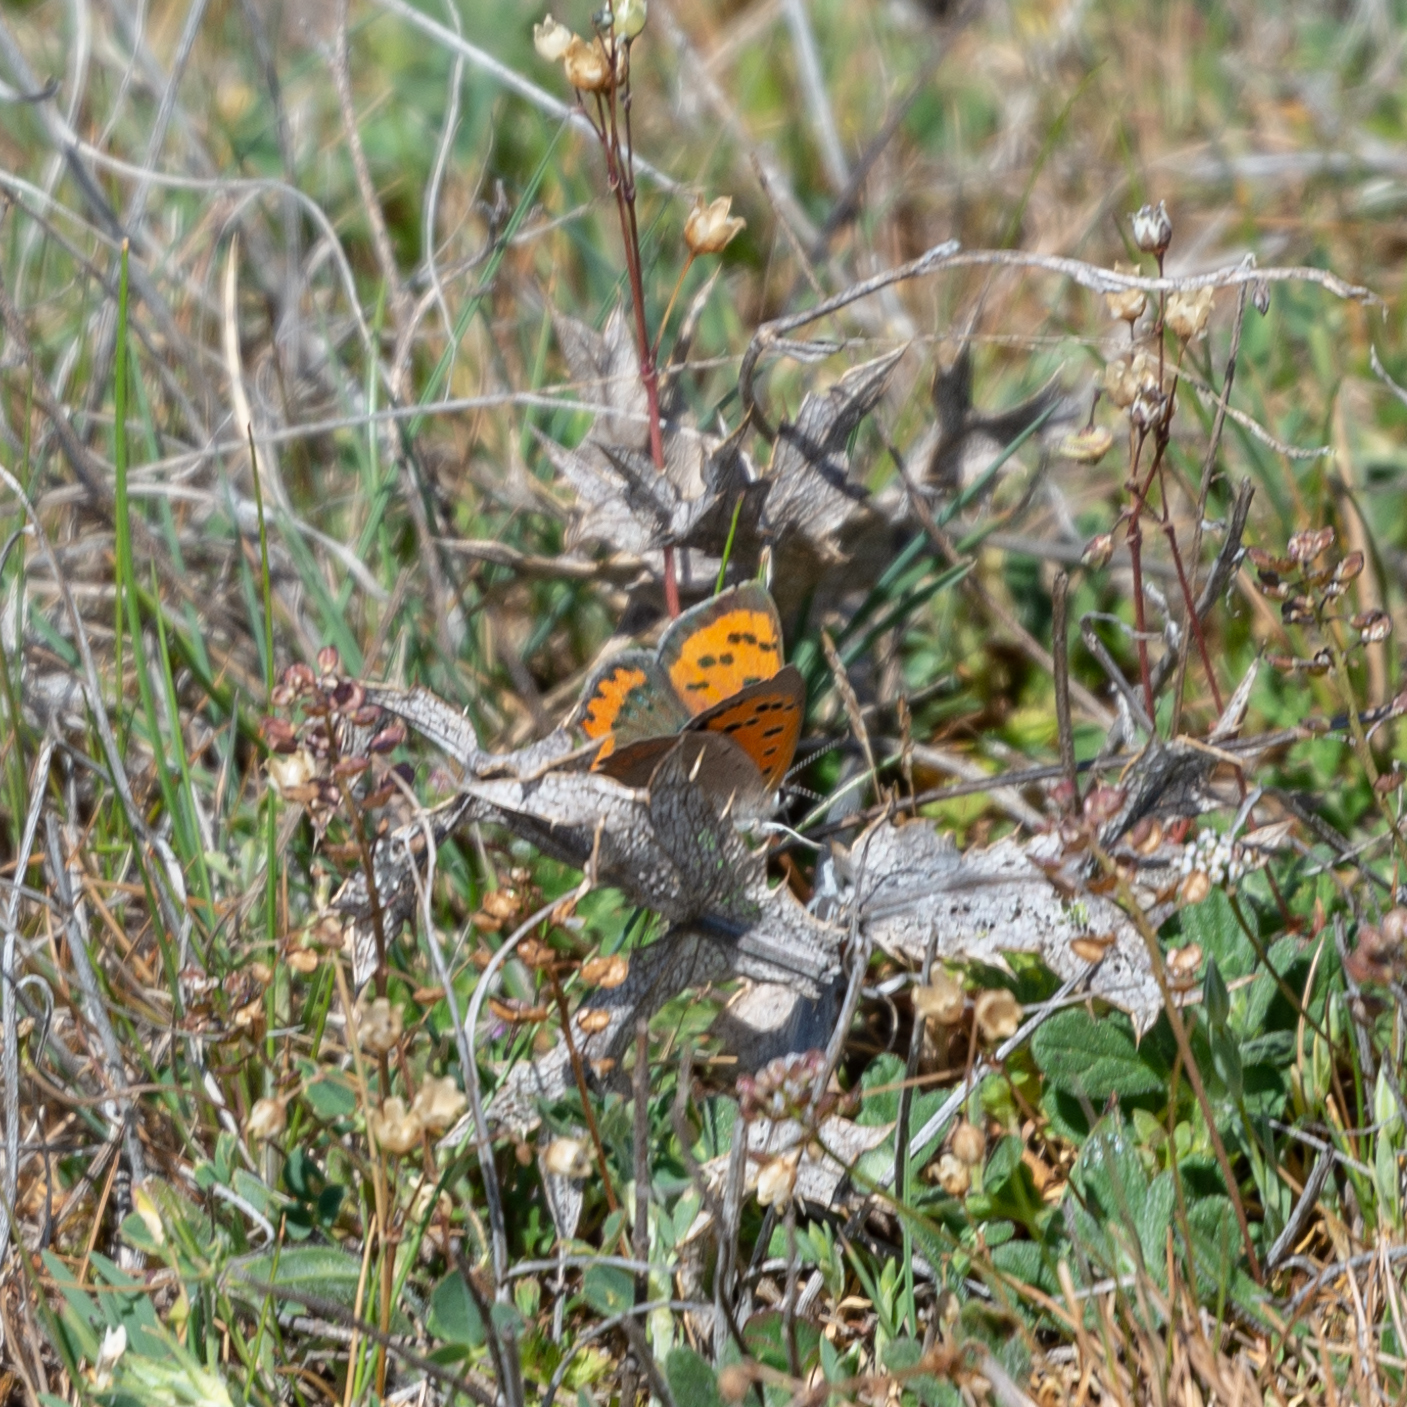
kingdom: Animalia
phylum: Arthropoda
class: Insecta
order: Lepidoptera
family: Lycaenidae
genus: Lycaena
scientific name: Lycaena phlaeas
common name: Small copper
